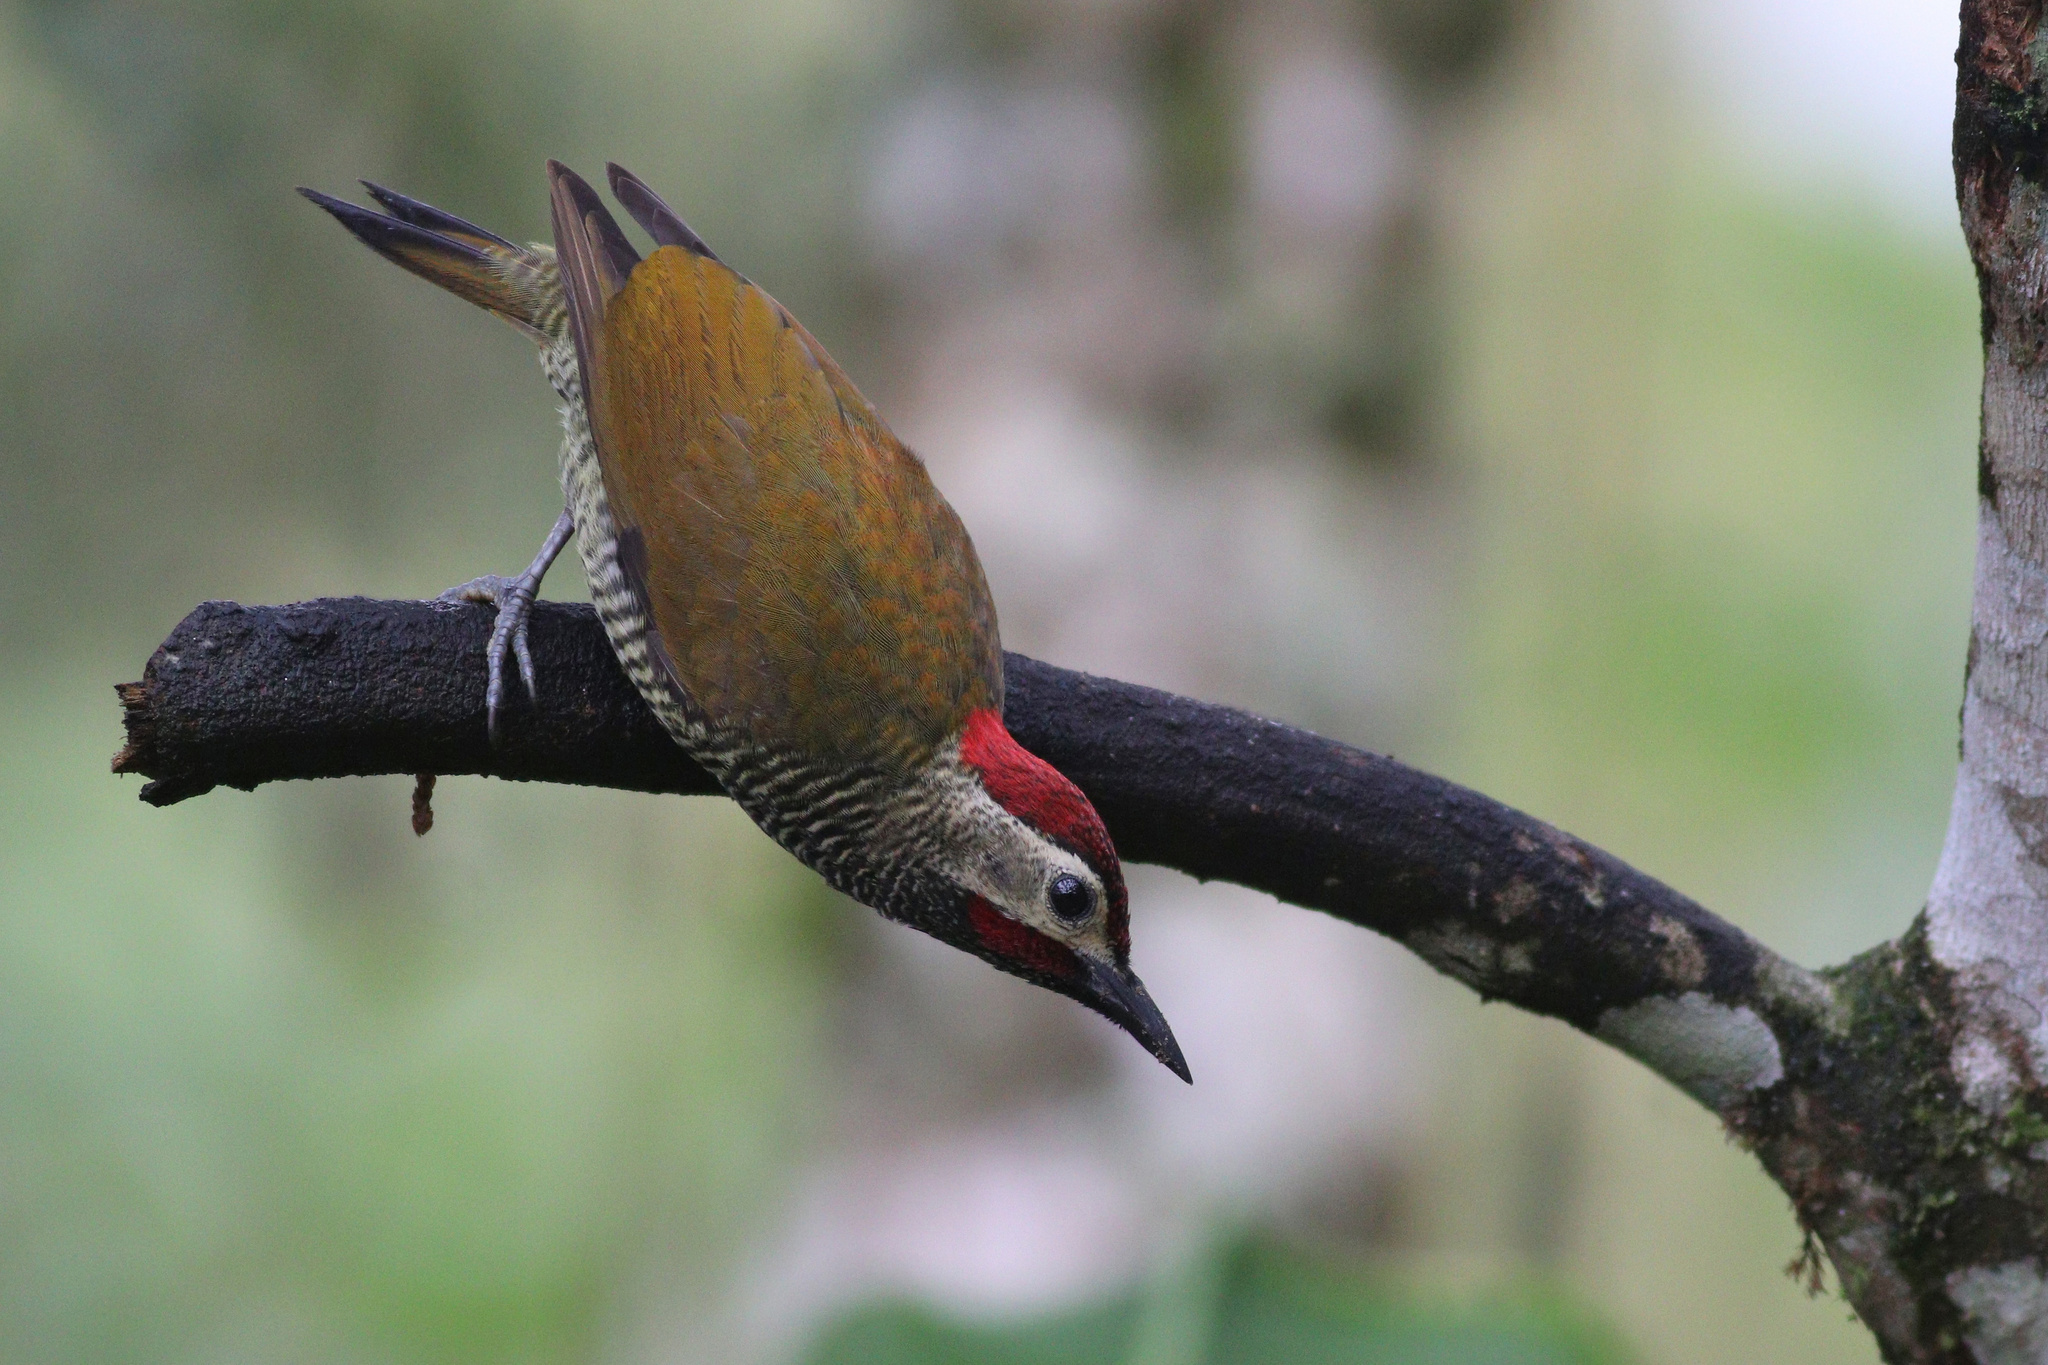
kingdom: Animalia
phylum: Chordata
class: Aves
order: Piciformes
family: Picidae
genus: Colaptes
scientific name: Colaptes rubiginosus
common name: Golden-olive woodpecker
